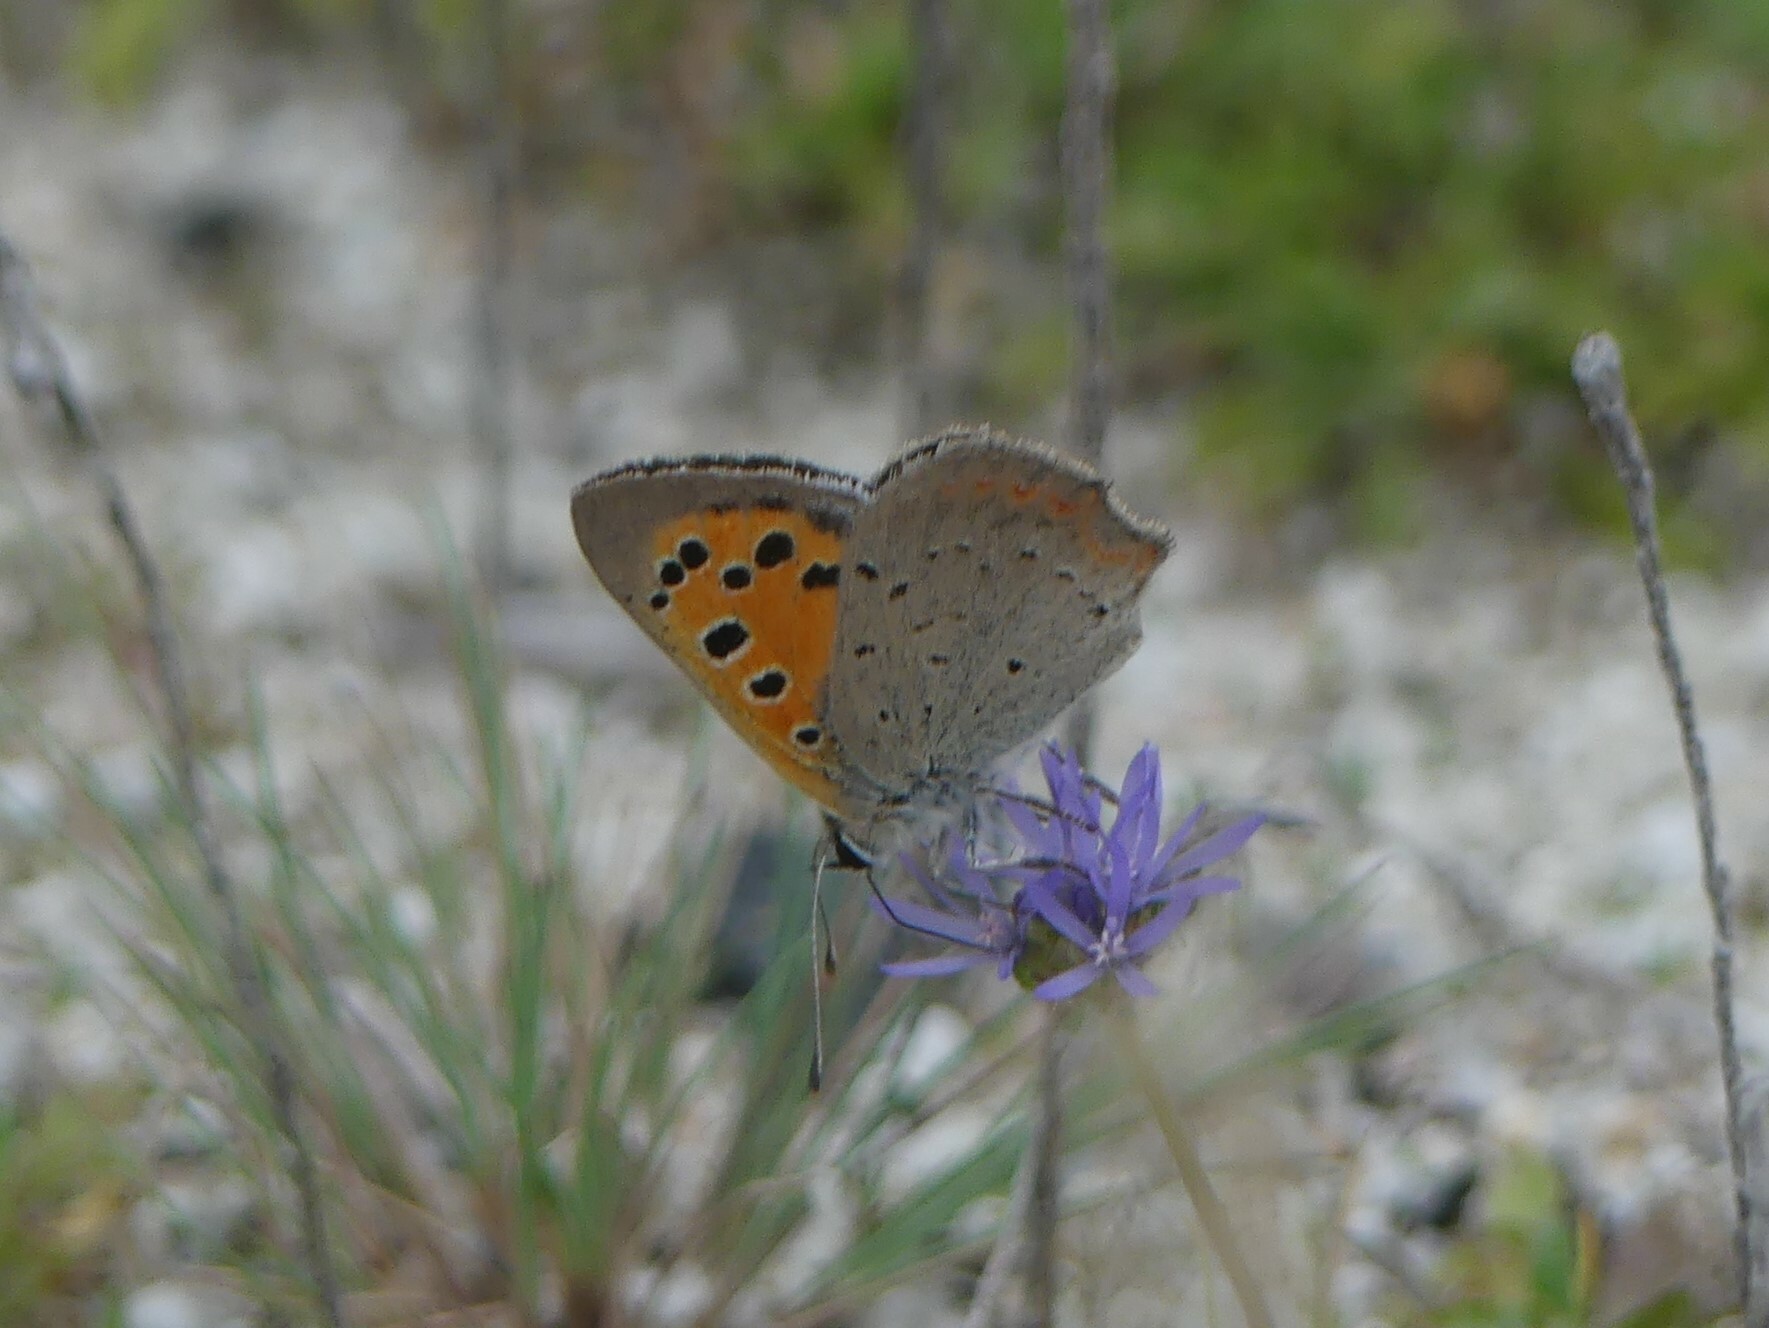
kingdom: Animalia
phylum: Arthropoda
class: Insecta
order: Lepidoptera
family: Lycaenidae
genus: Lycaena
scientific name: Lycaena phlaeas
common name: Small copper
